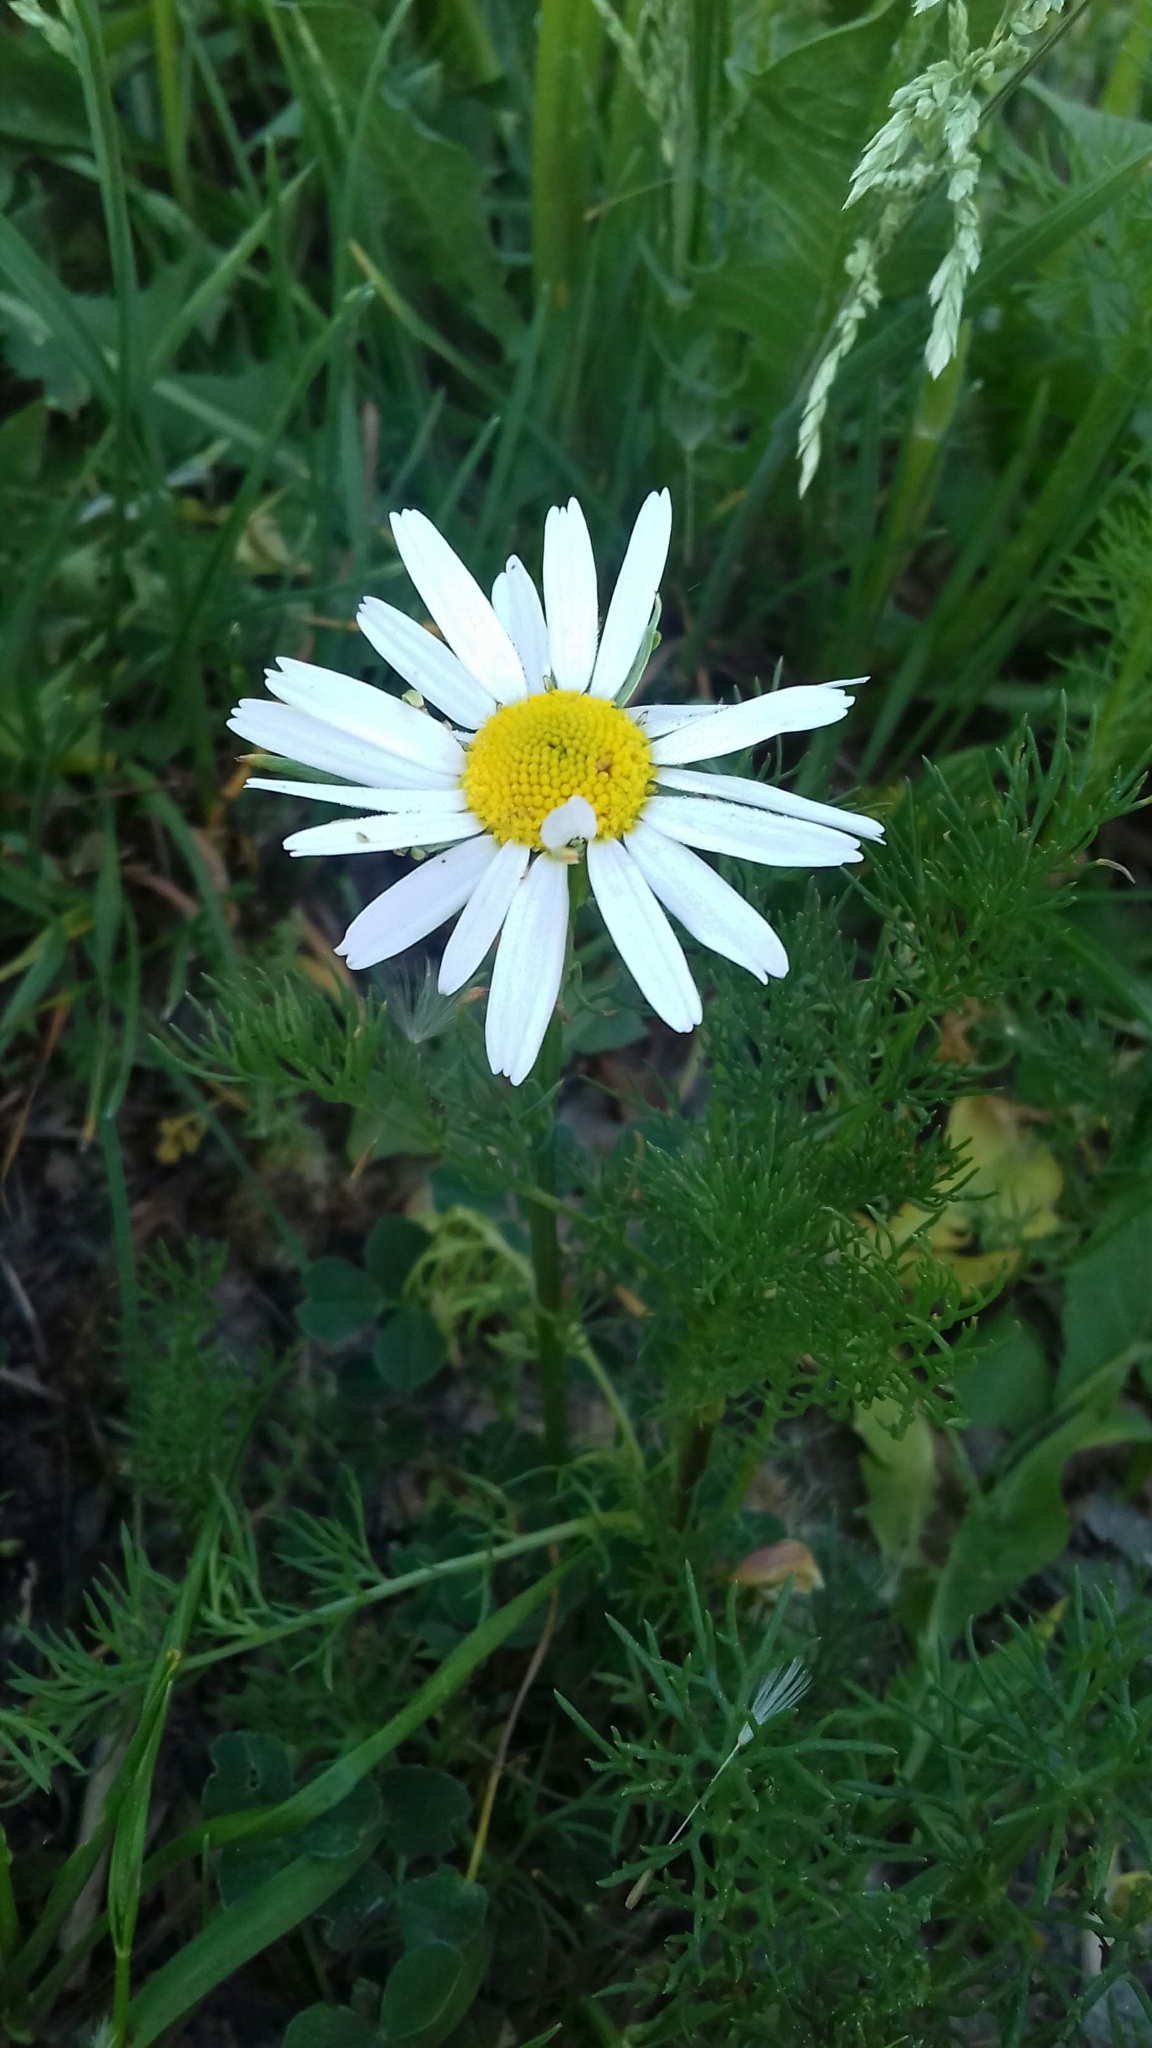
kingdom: Plantae
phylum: Tracheophyta
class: Magnoliopsida
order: Asterales
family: Asteraceae
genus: Tripleurospermum
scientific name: Tripleurospermum inodorum
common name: Scentless mayweed
